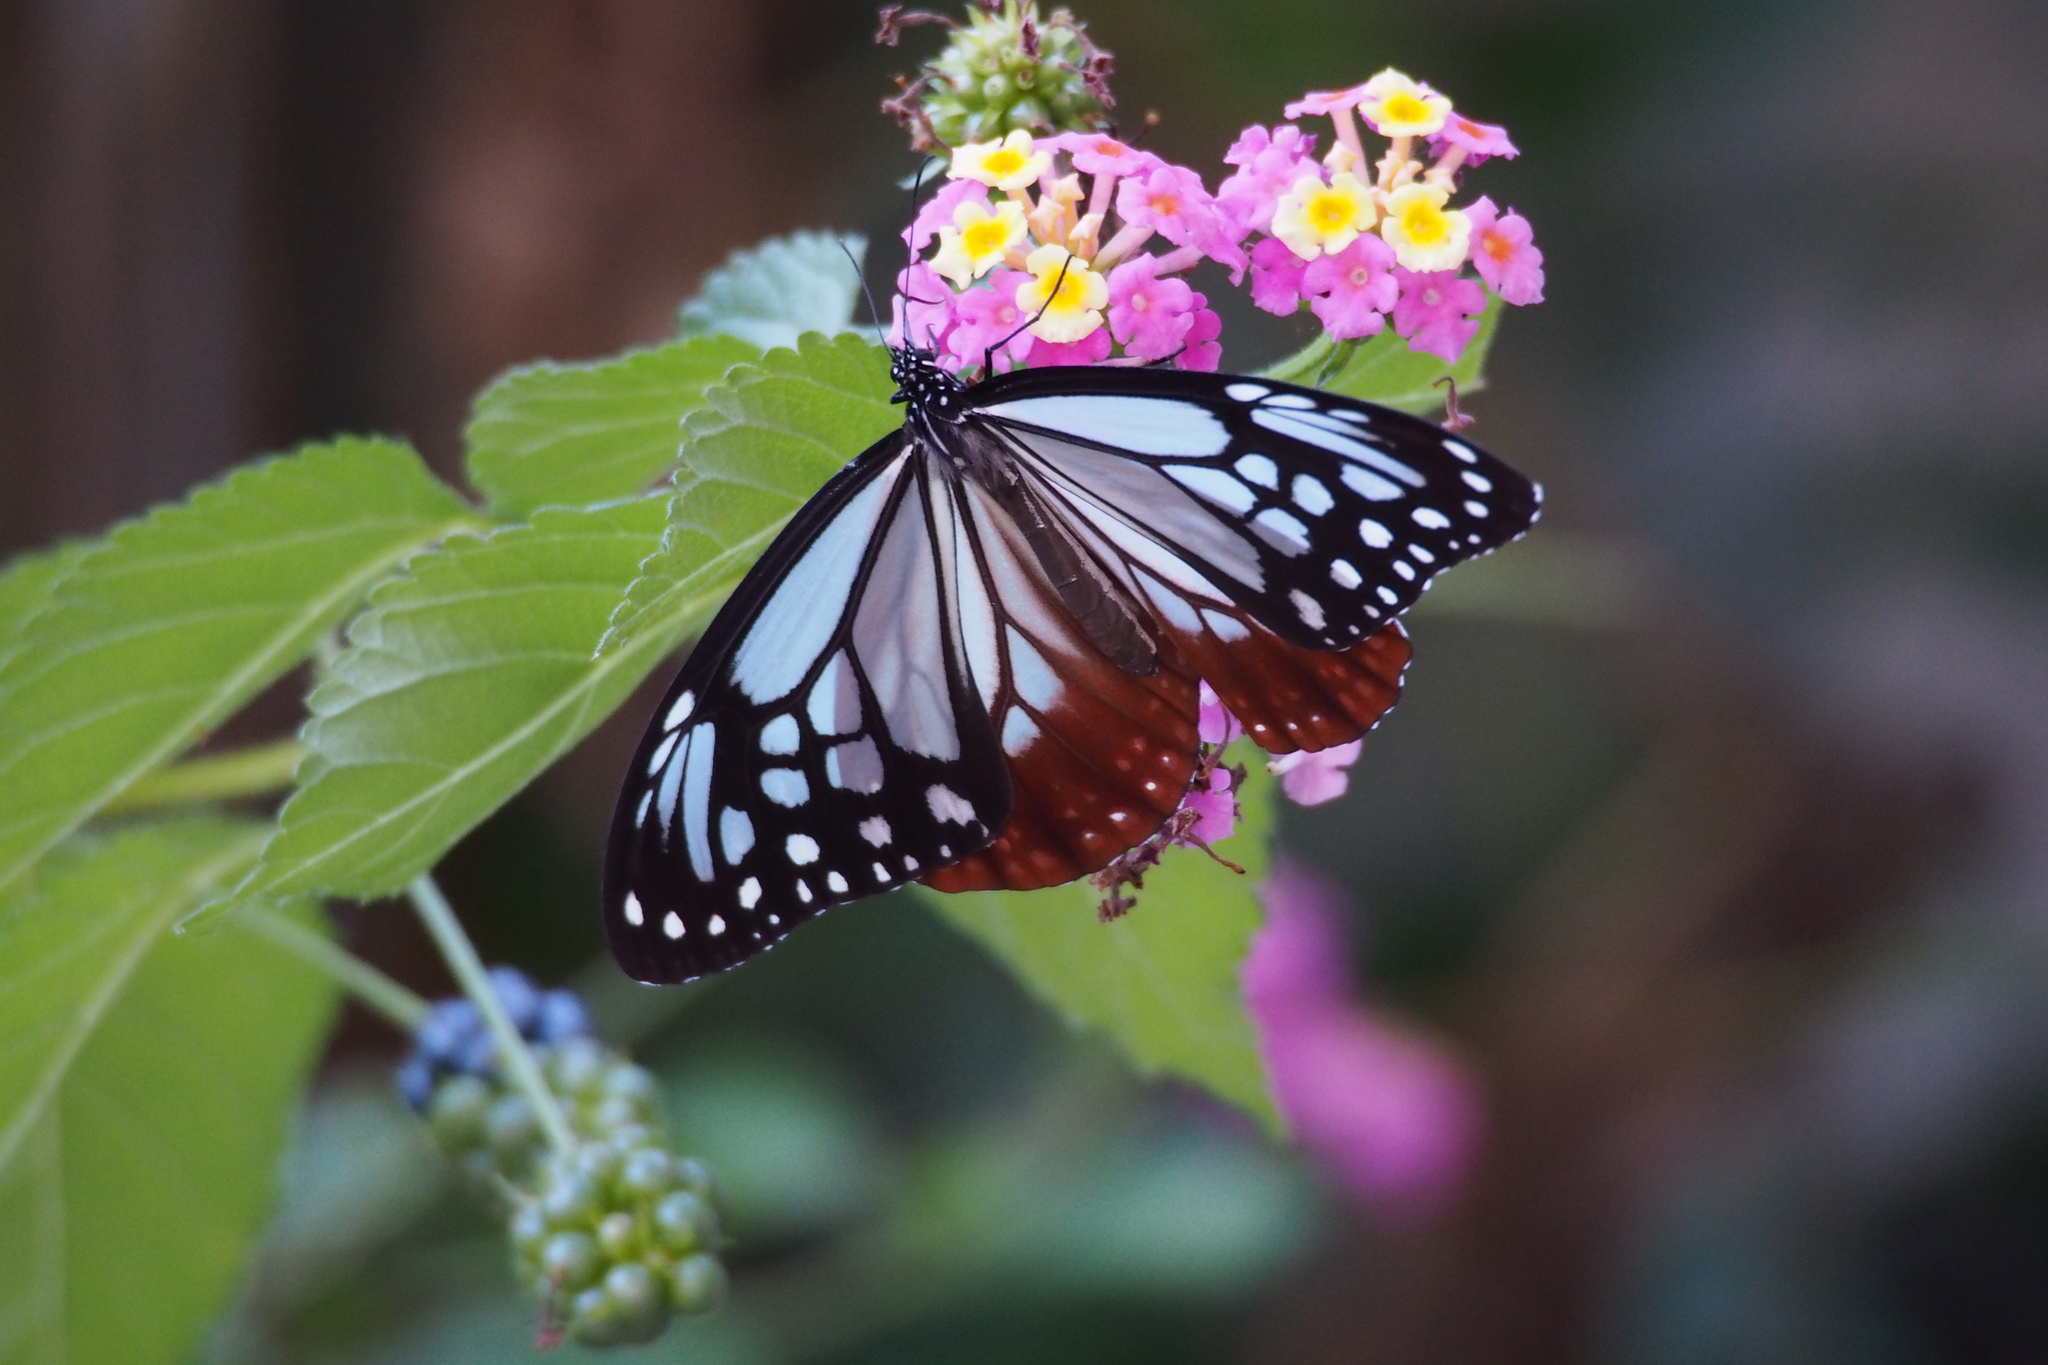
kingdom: Animalia
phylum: Arthropoda
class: Insecta
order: Lepidoptera
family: Nymphalidae
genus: Parantica
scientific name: Parantica sita
